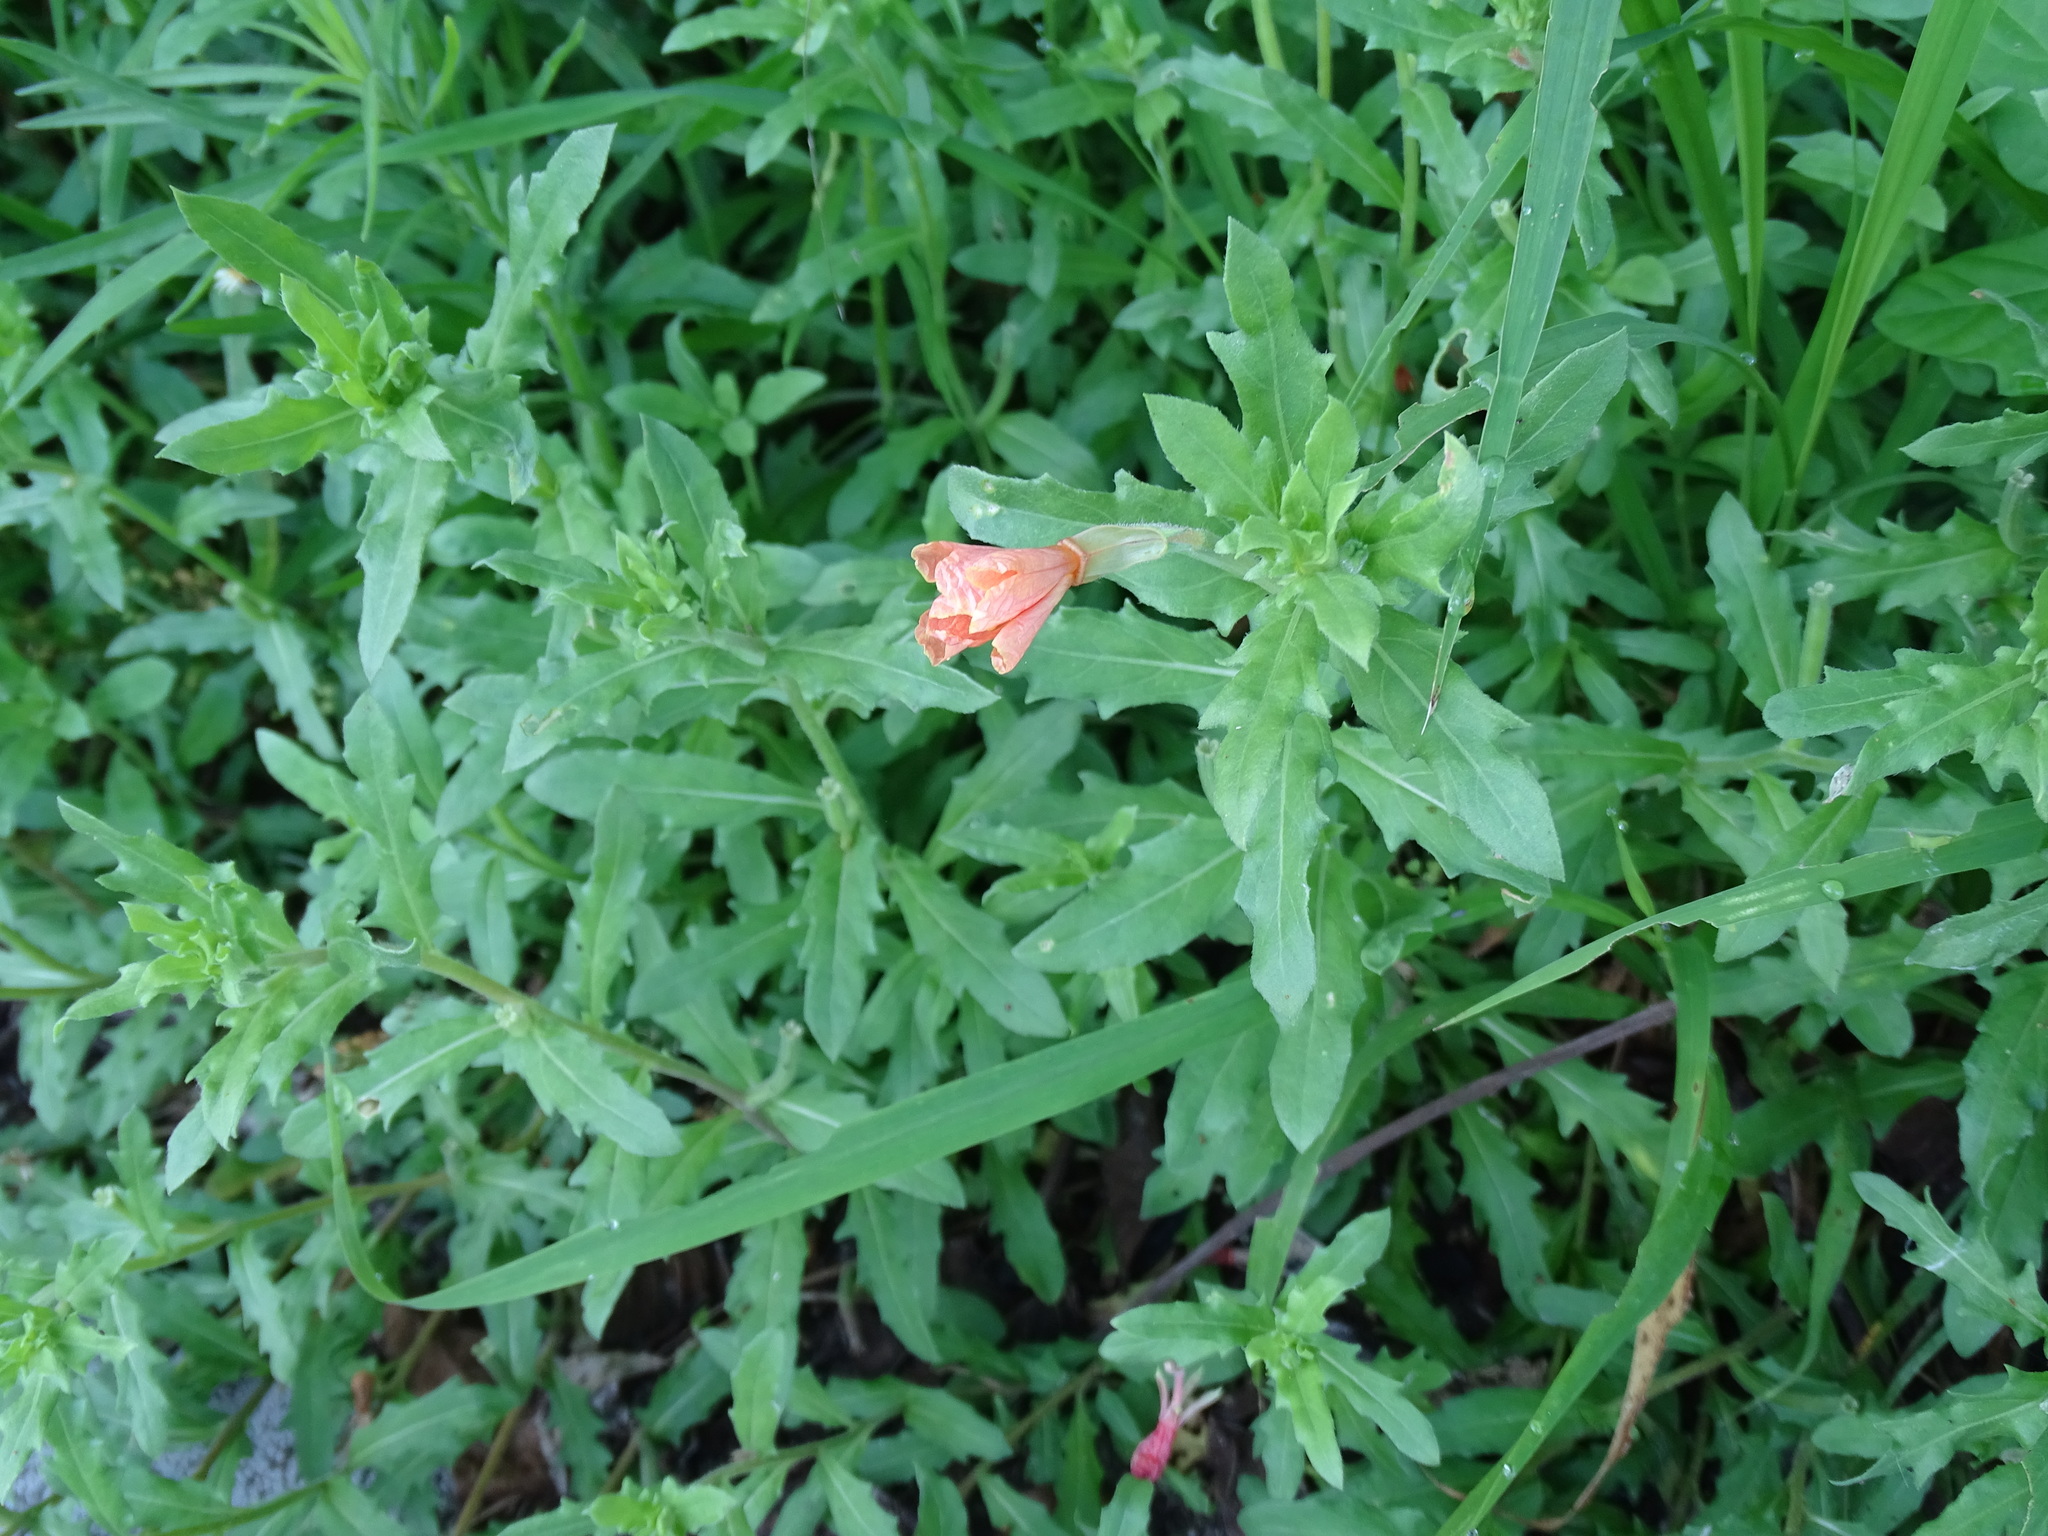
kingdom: Plantae
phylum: Tracheophyta
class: Magnoliopsida
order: Myrtales
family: Onagraceae
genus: Oenothera
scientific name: Oenothera laciniata
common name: Cut-leaved evening-primrose
